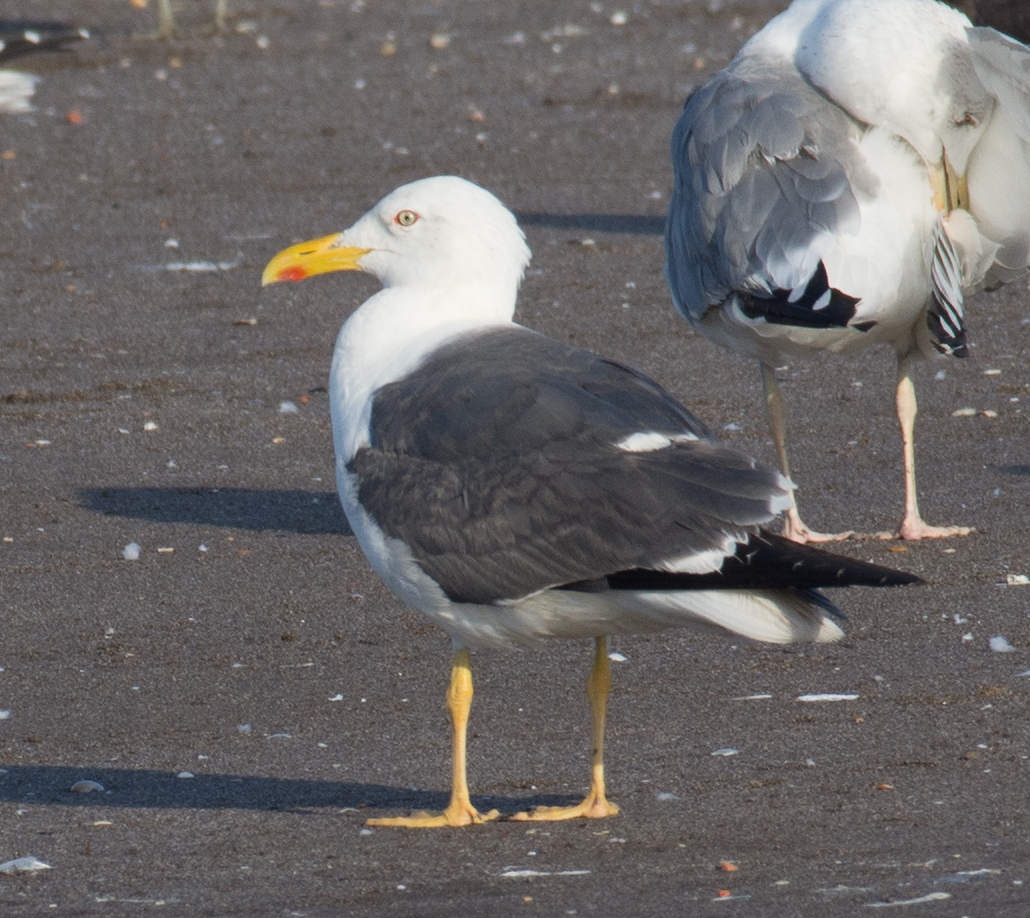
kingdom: Animalia
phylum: Chordata
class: Aves
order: Charadriiformes
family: Laridae
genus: Larus
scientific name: Larus fuscus
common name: Lesser black-backed gull
